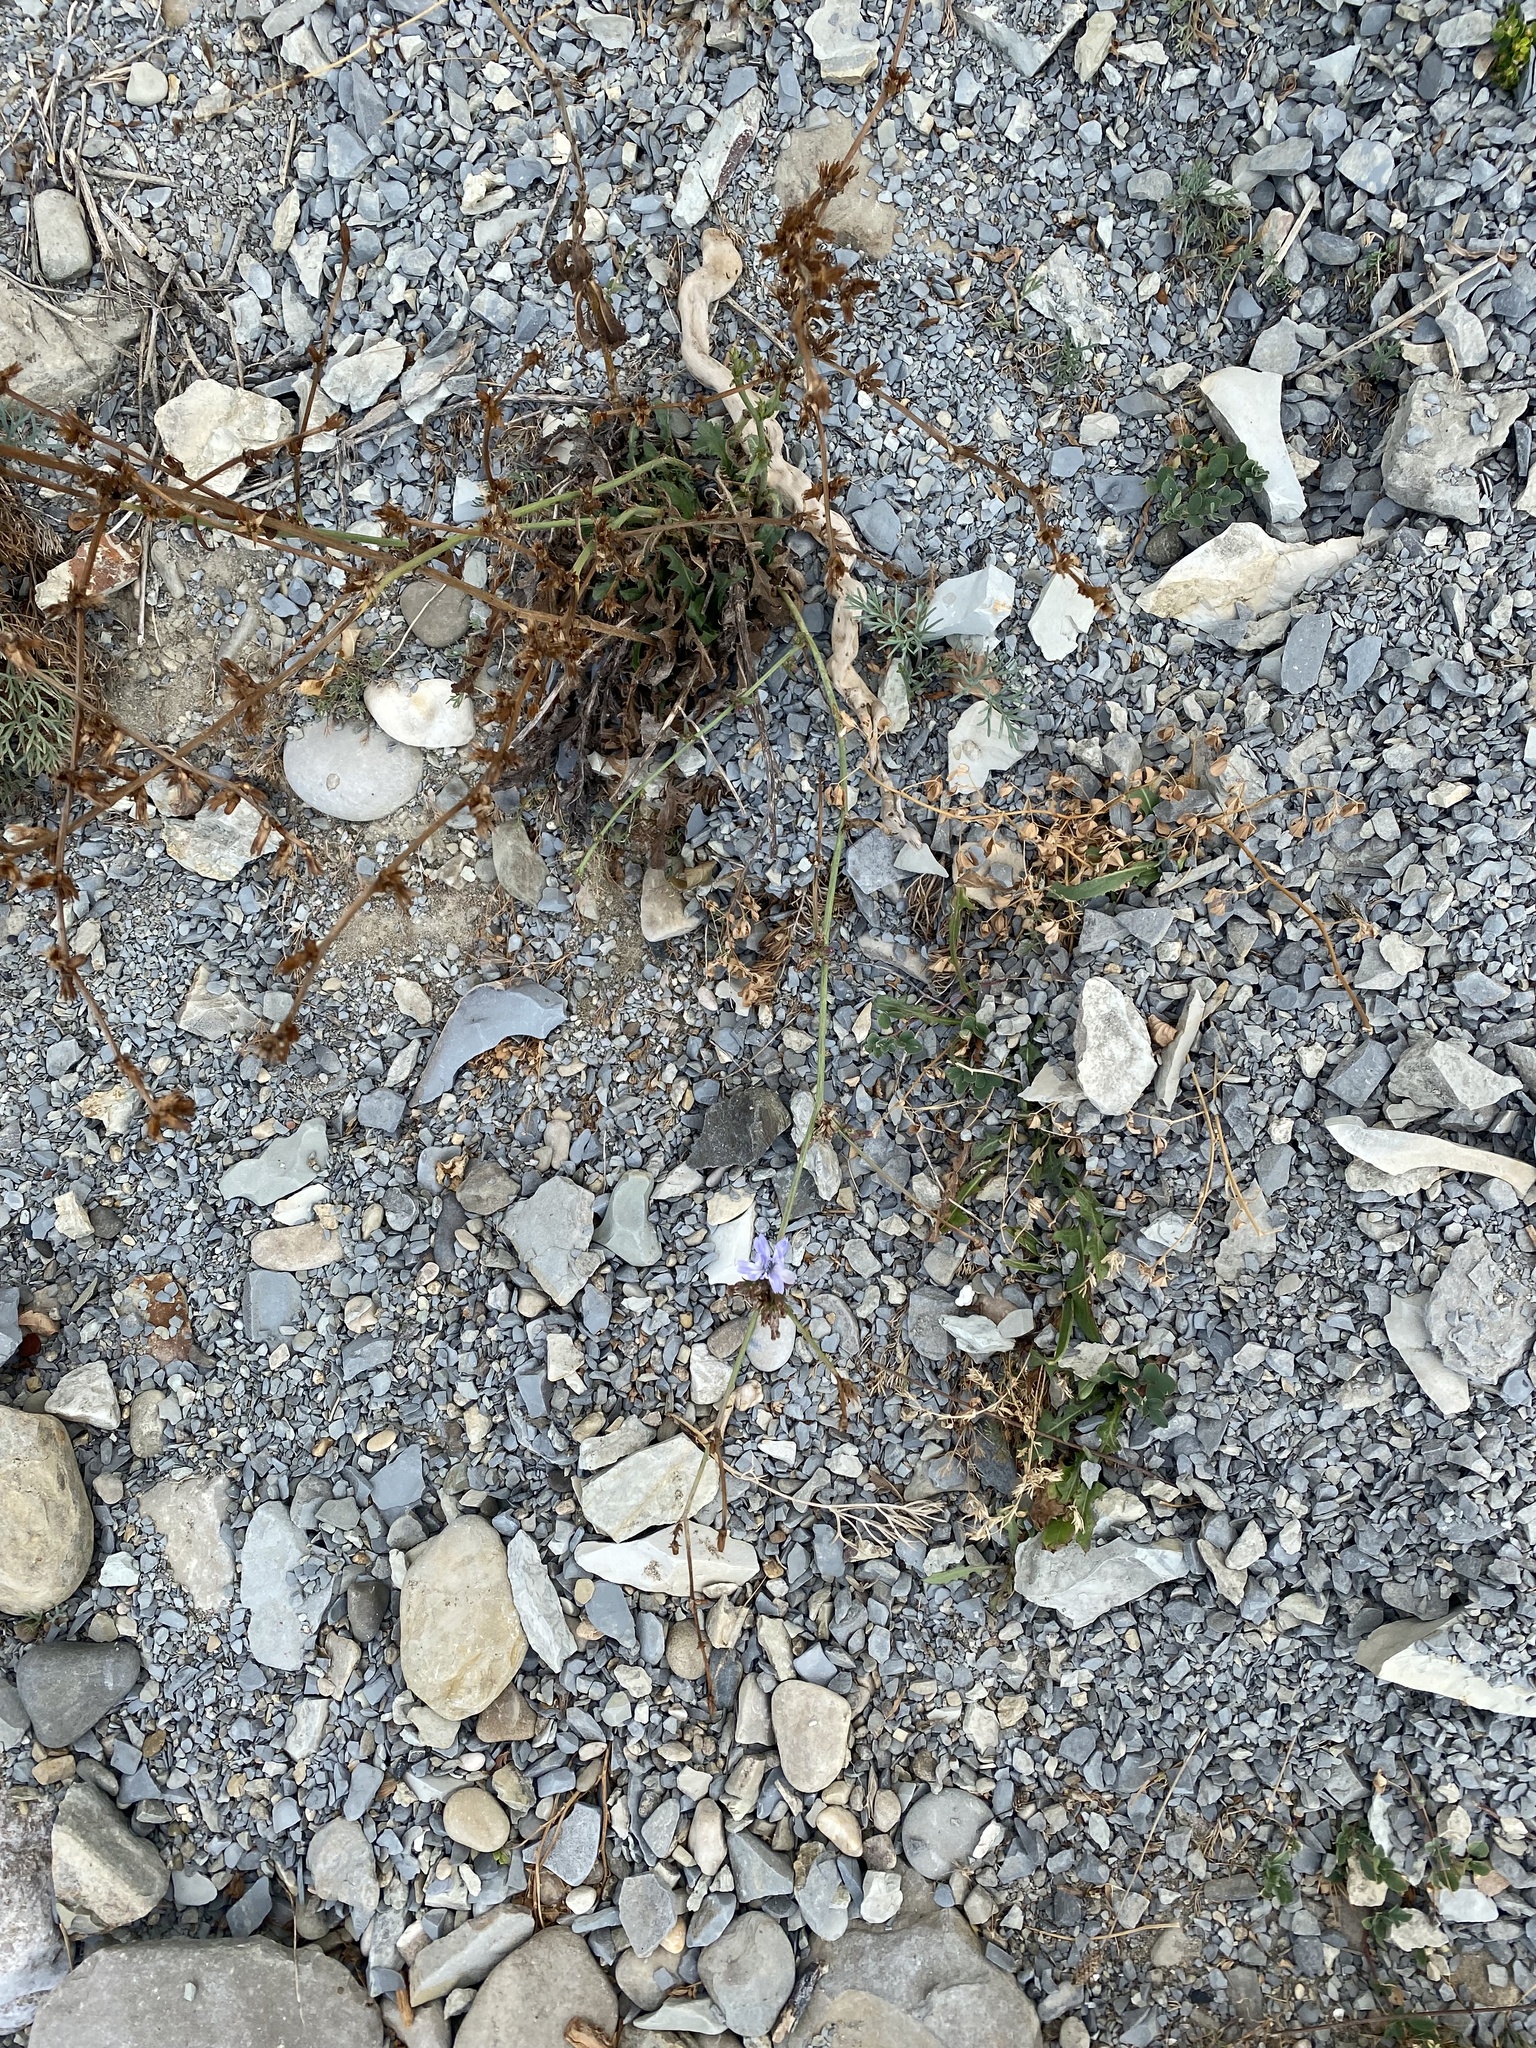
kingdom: Plantae
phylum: Tracheophyta
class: Magnoliopsida
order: Asterales
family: Asteraceae
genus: Cichorium
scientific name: Cichorium intybus
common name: Chicory
